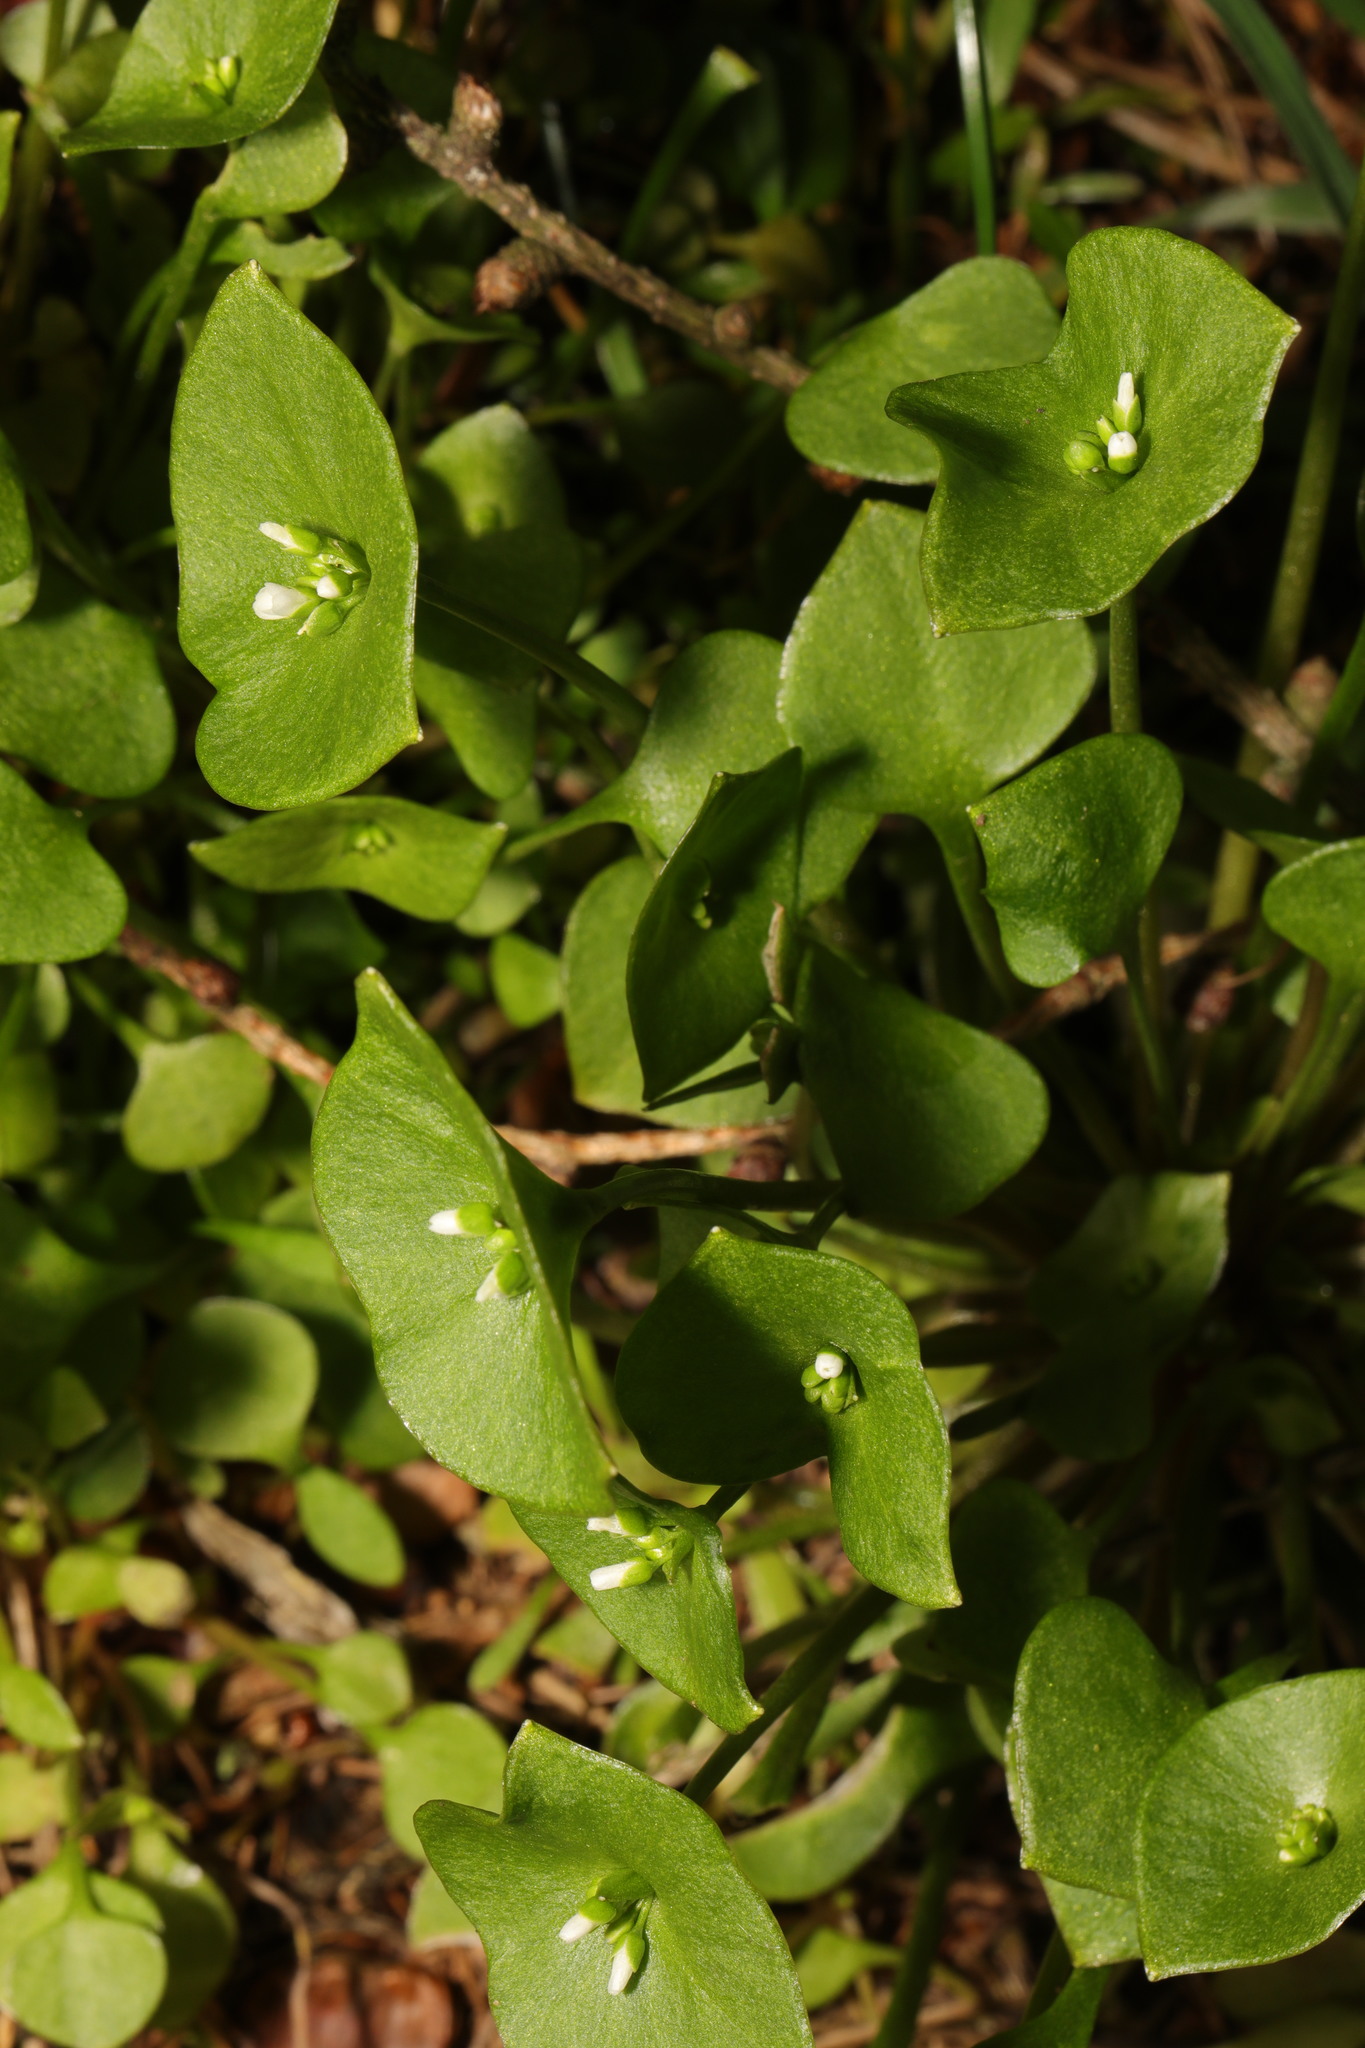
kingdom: Plantae
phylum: Tracheophyta
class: Magnoliopsida
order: Caryophyllales
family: Montiaceae
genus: Claytonia
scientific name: Claytonia perfoliata
